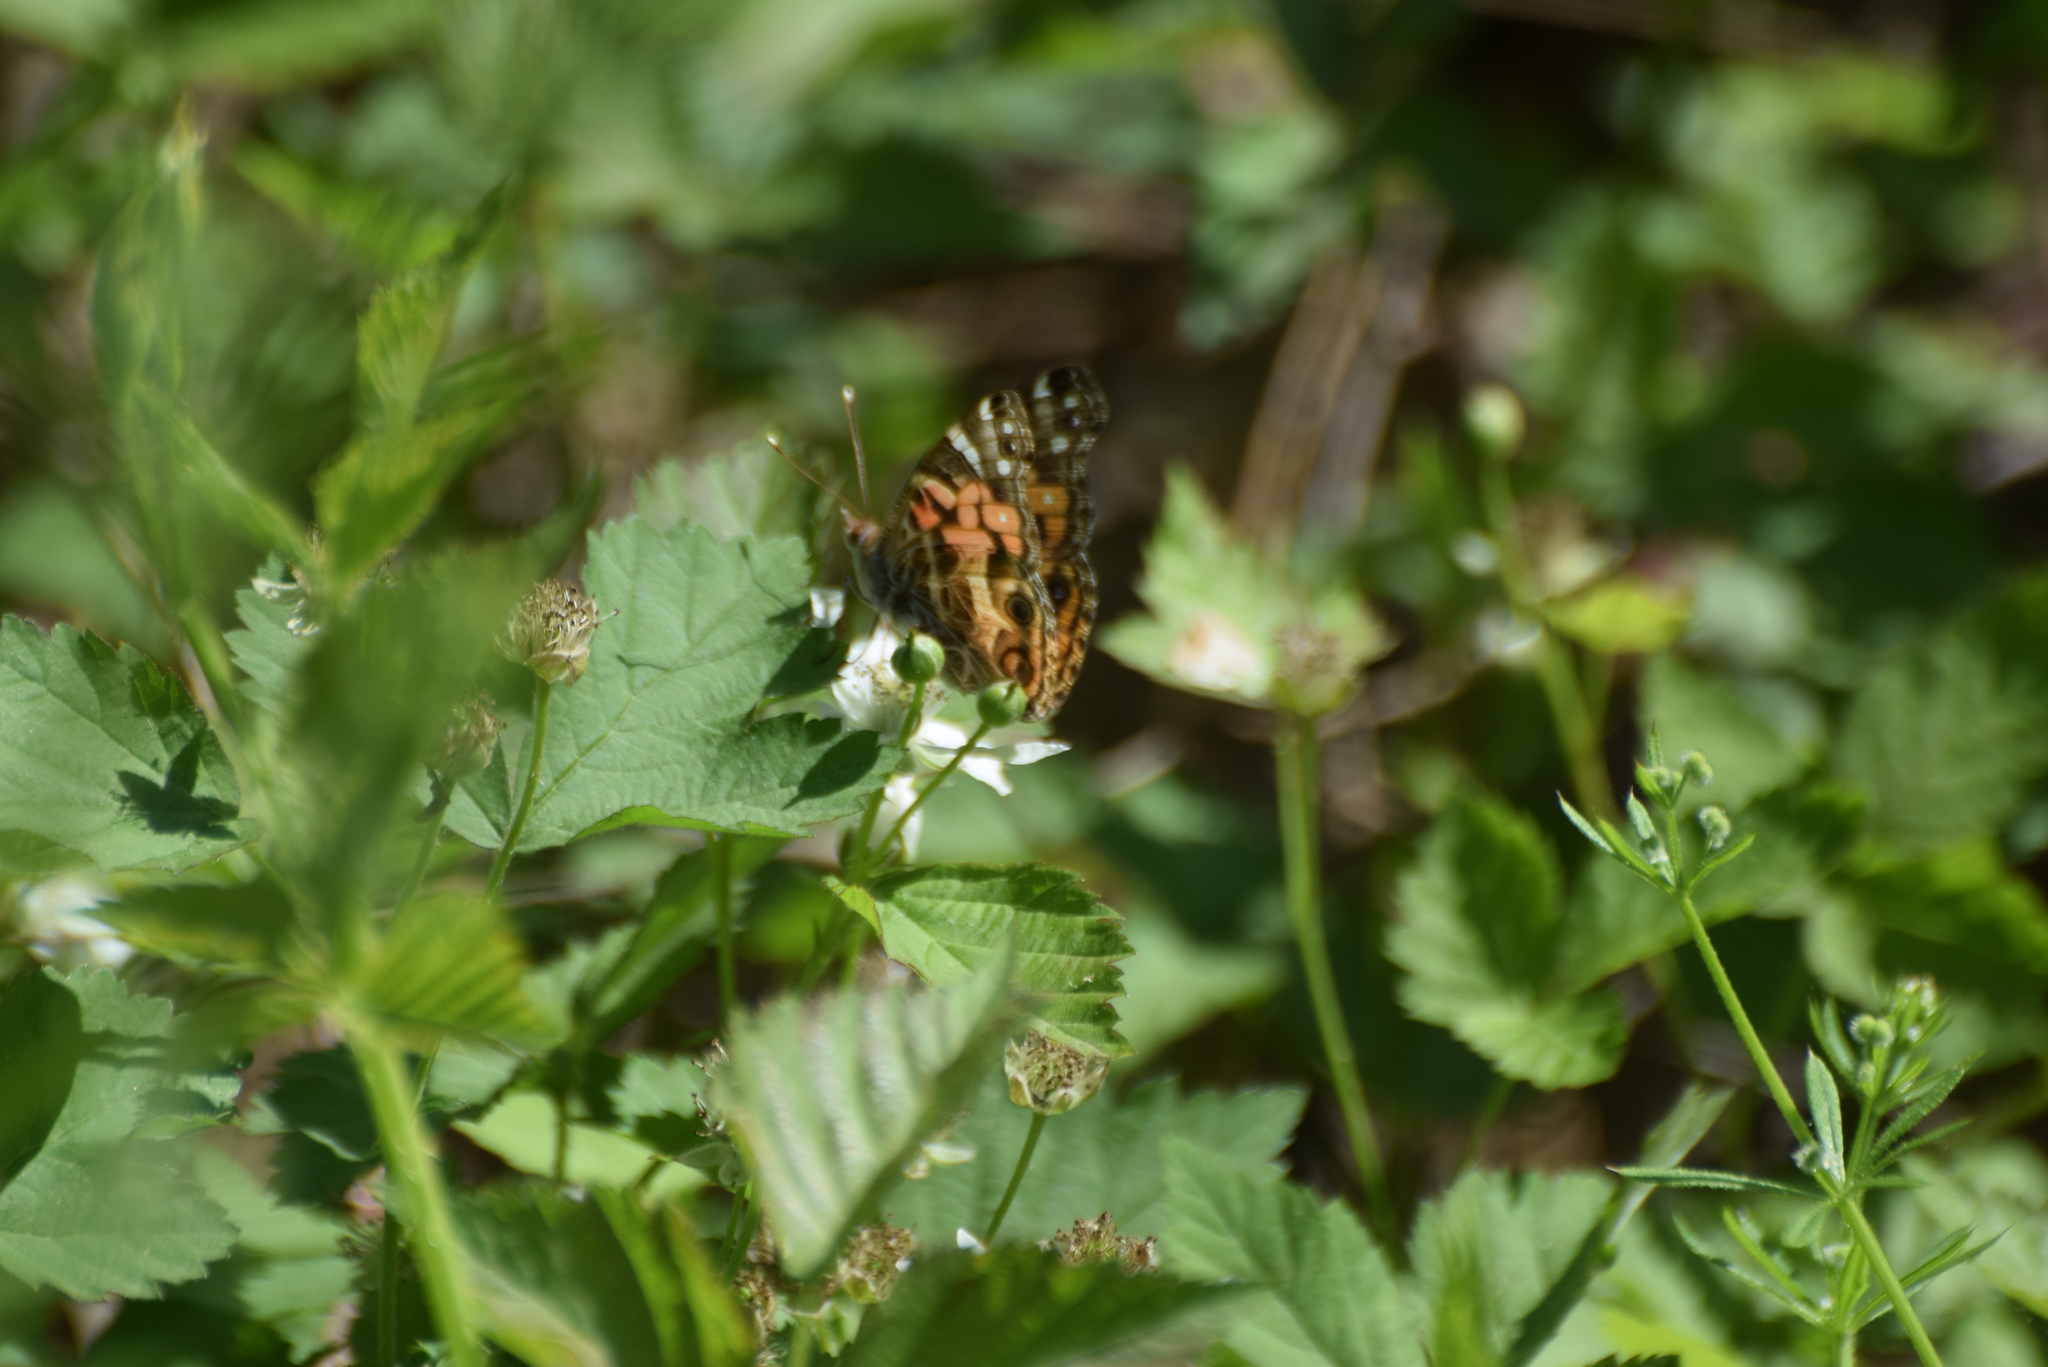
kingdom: Animalia
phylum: Arthropoda
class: Insecta
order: Lepidoptera
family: Nymphalidae
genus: Vanessa
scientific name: Vanessa virginiensis
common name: American lady
